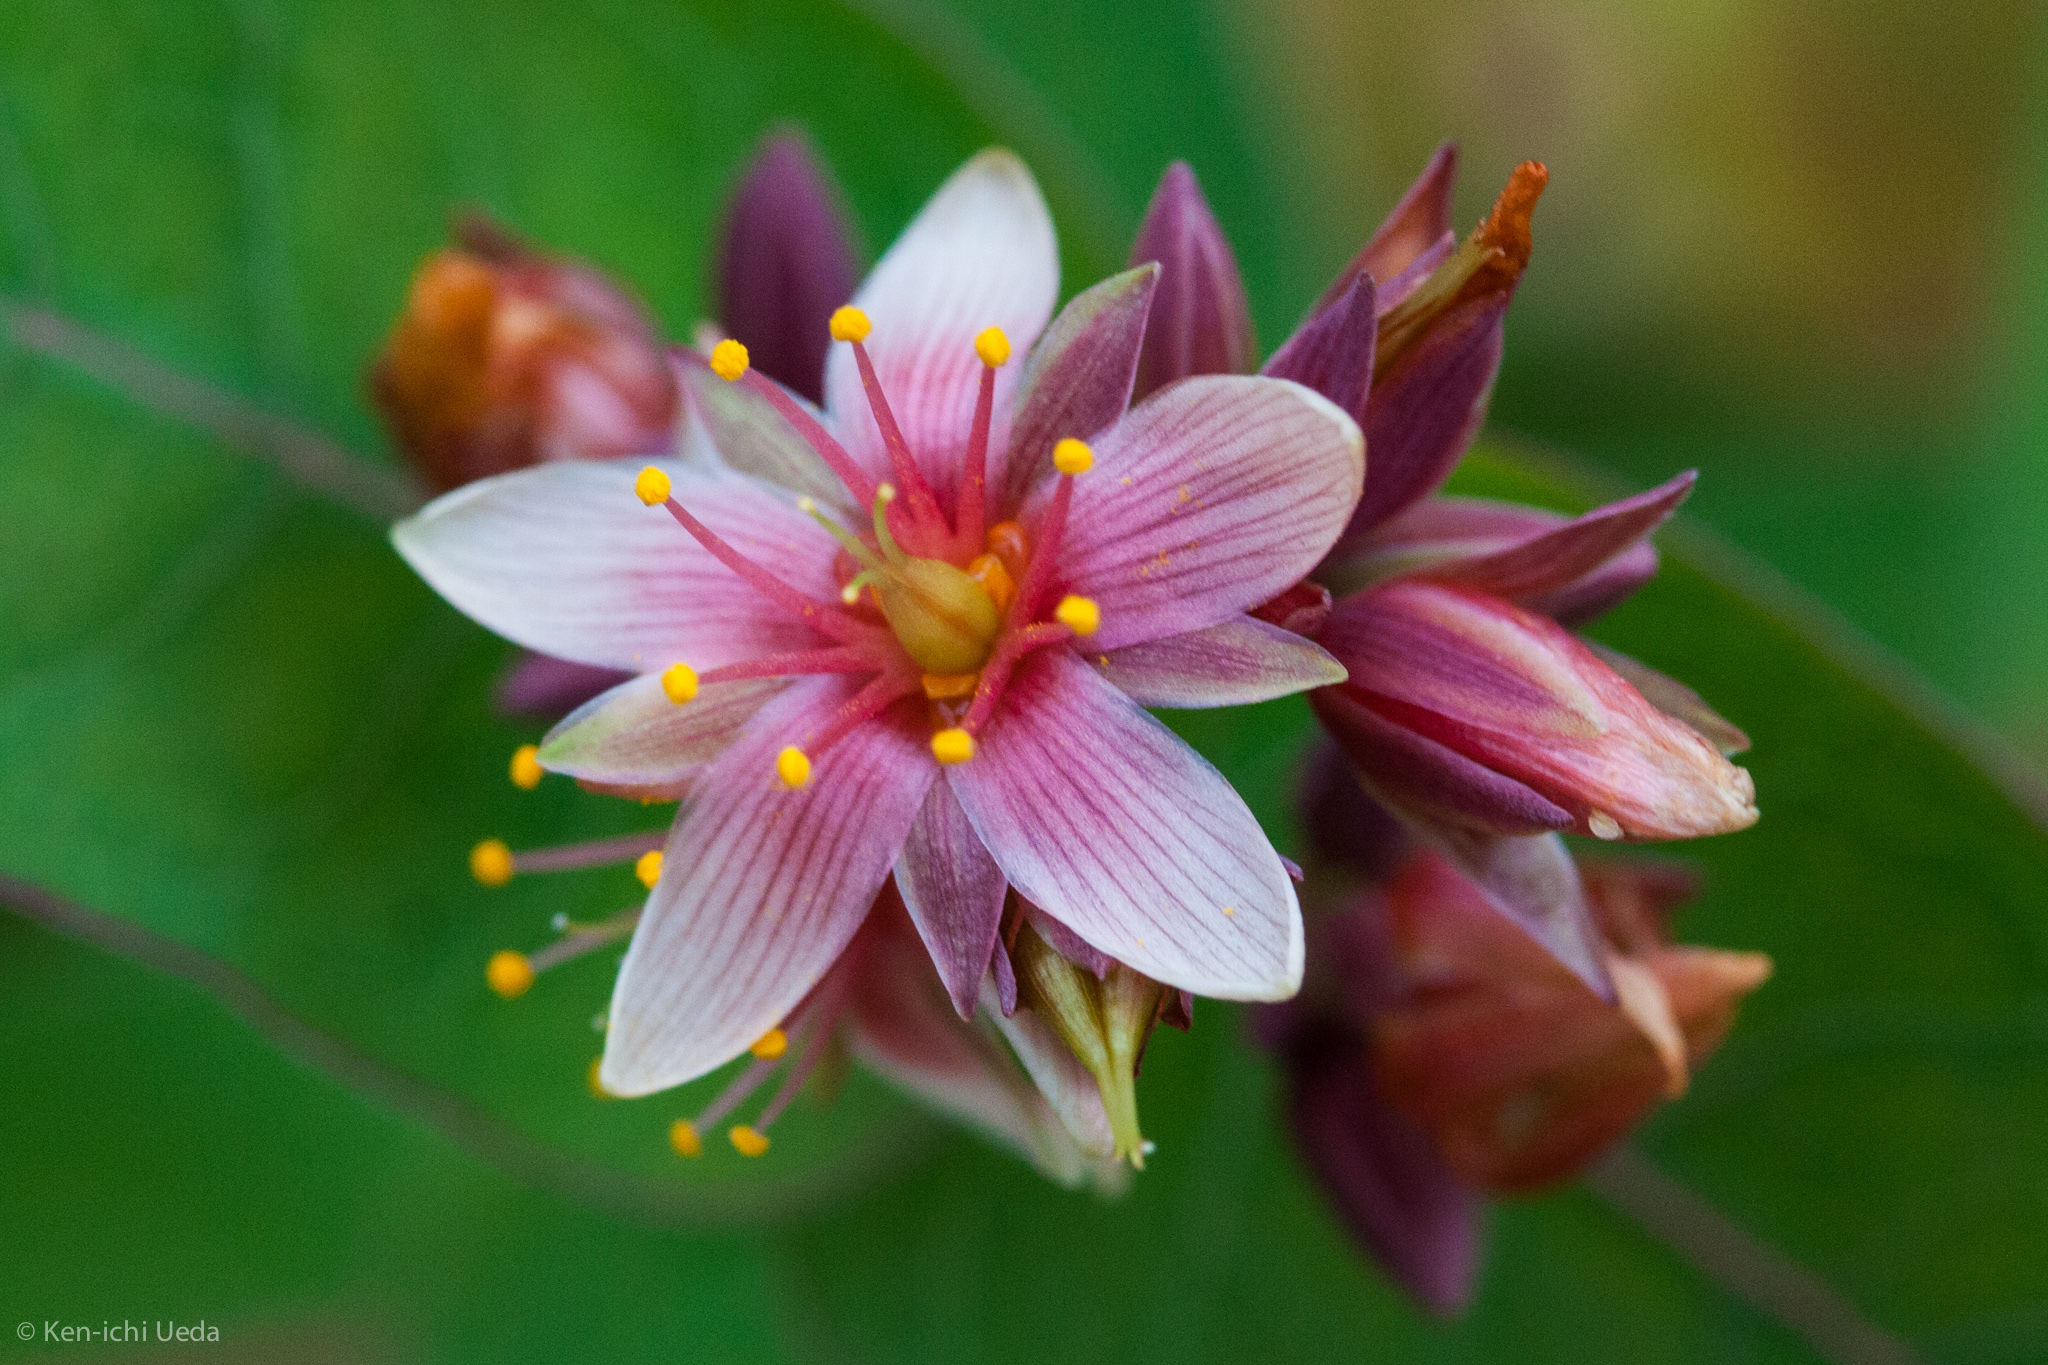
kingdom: Plantae
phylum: Tracheophyta
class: Magnoliopsida
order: Malpighiales
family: Hypericaceae
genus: Triadenum
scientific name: Triadenum virginicum
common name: Marsh st. john's-wort
